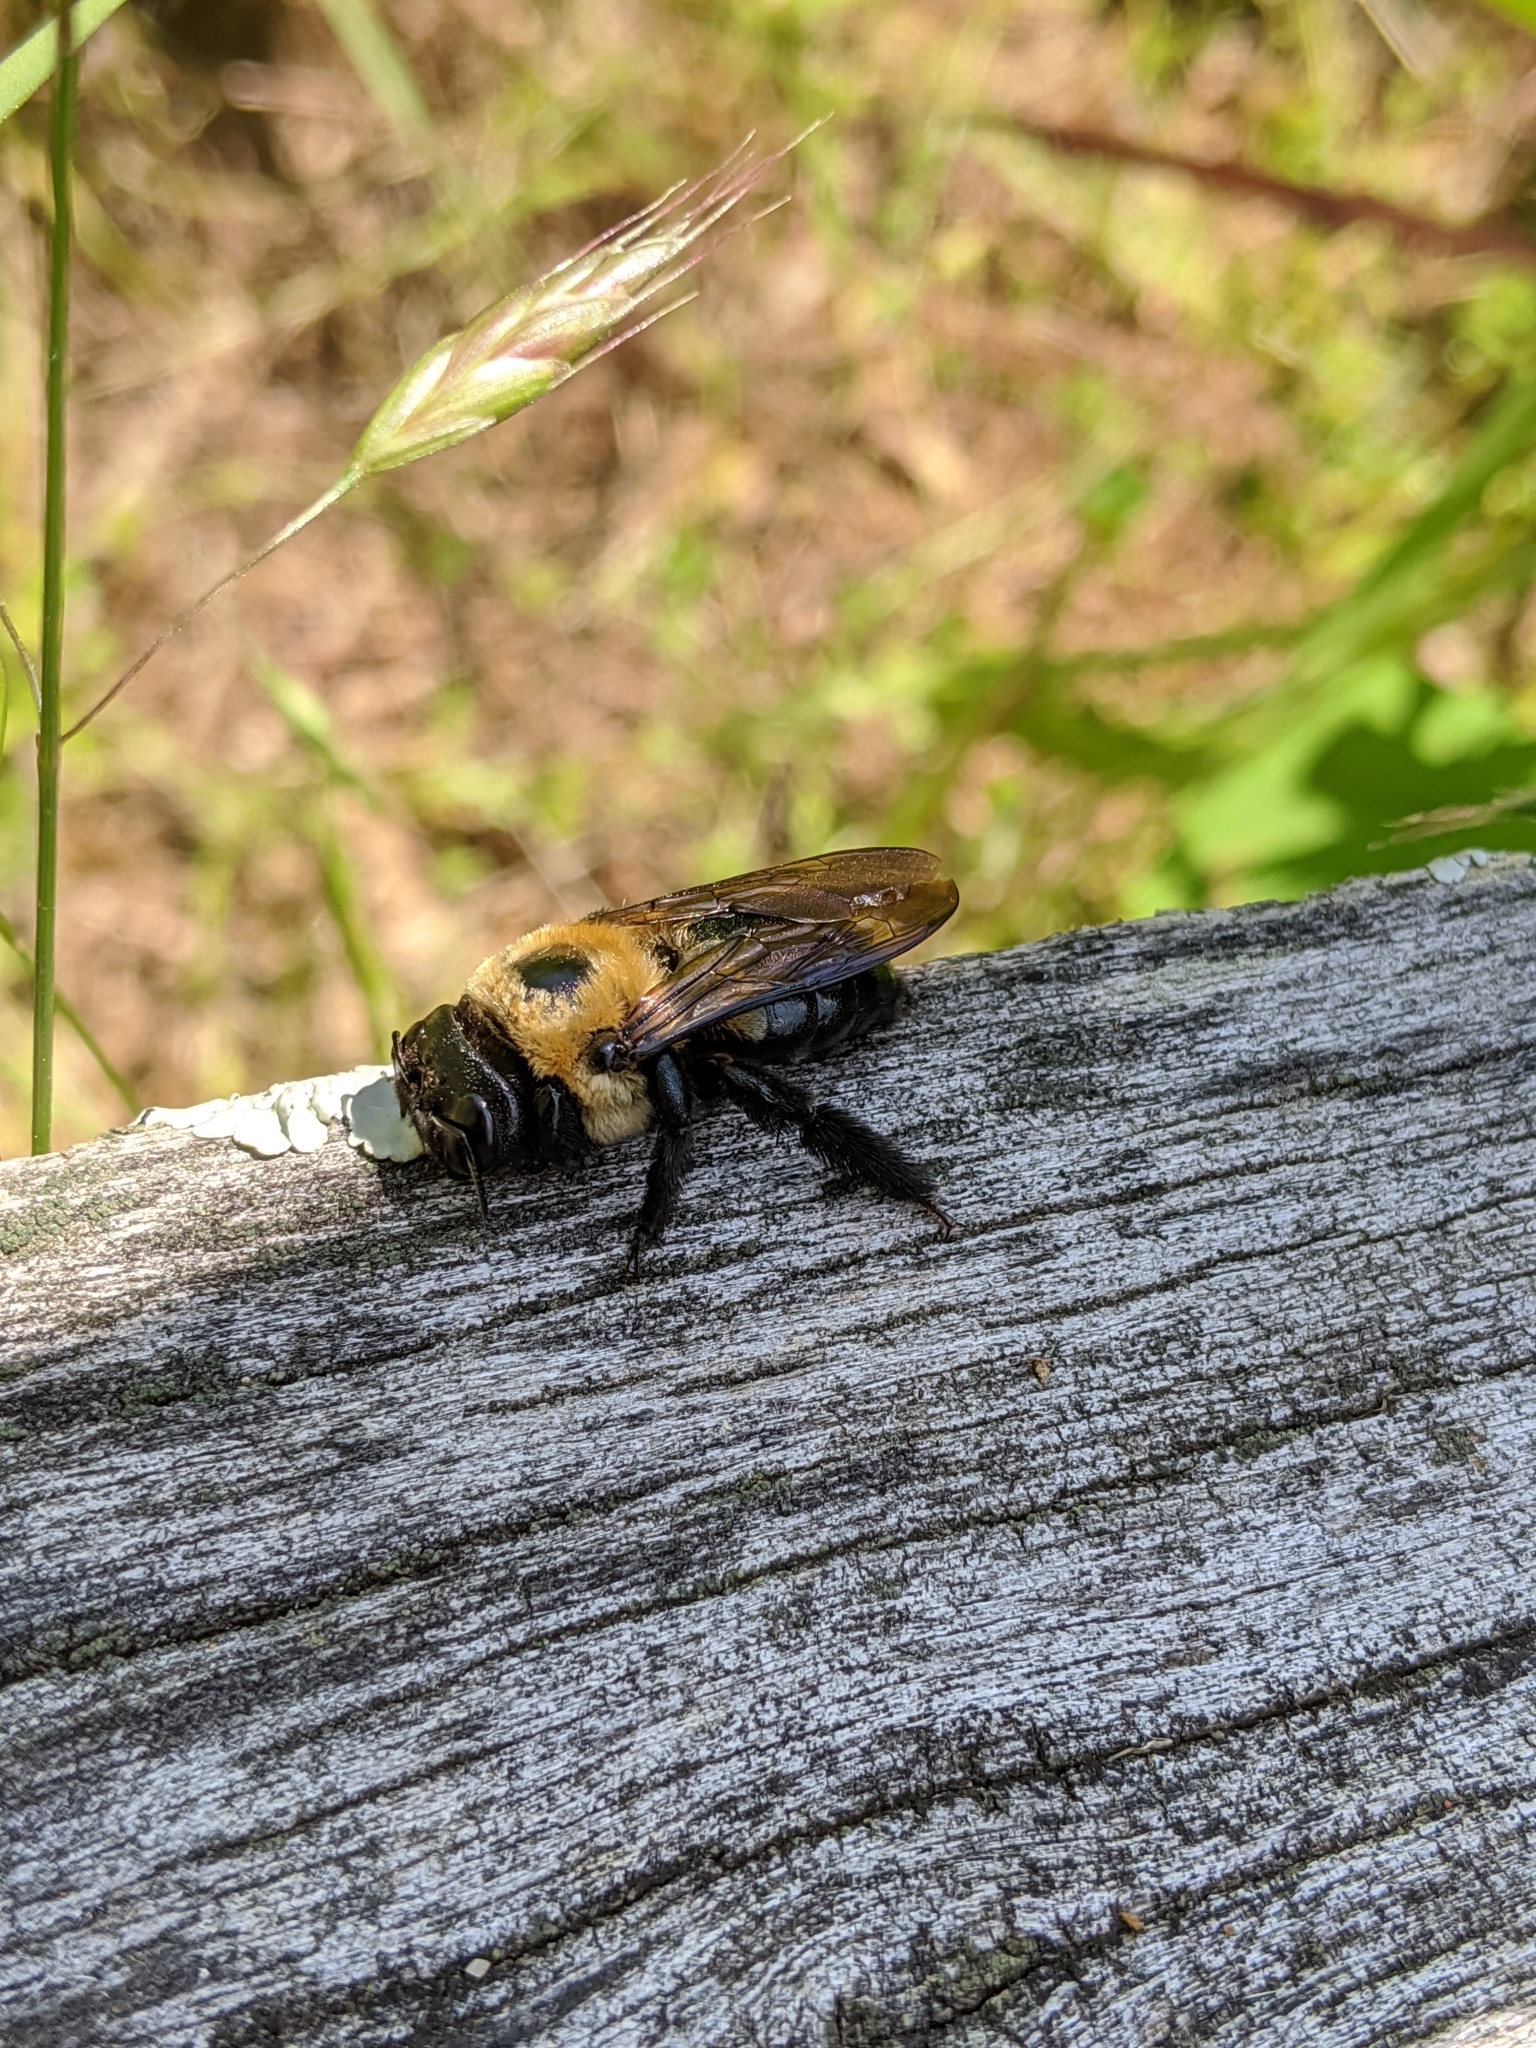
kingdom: Animalia
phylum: Arthropoda
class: Insecta
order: Hymenoptera
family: Apidae
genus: Xylocopa
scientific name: Xylocopa virginica
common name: Carpenter bee
